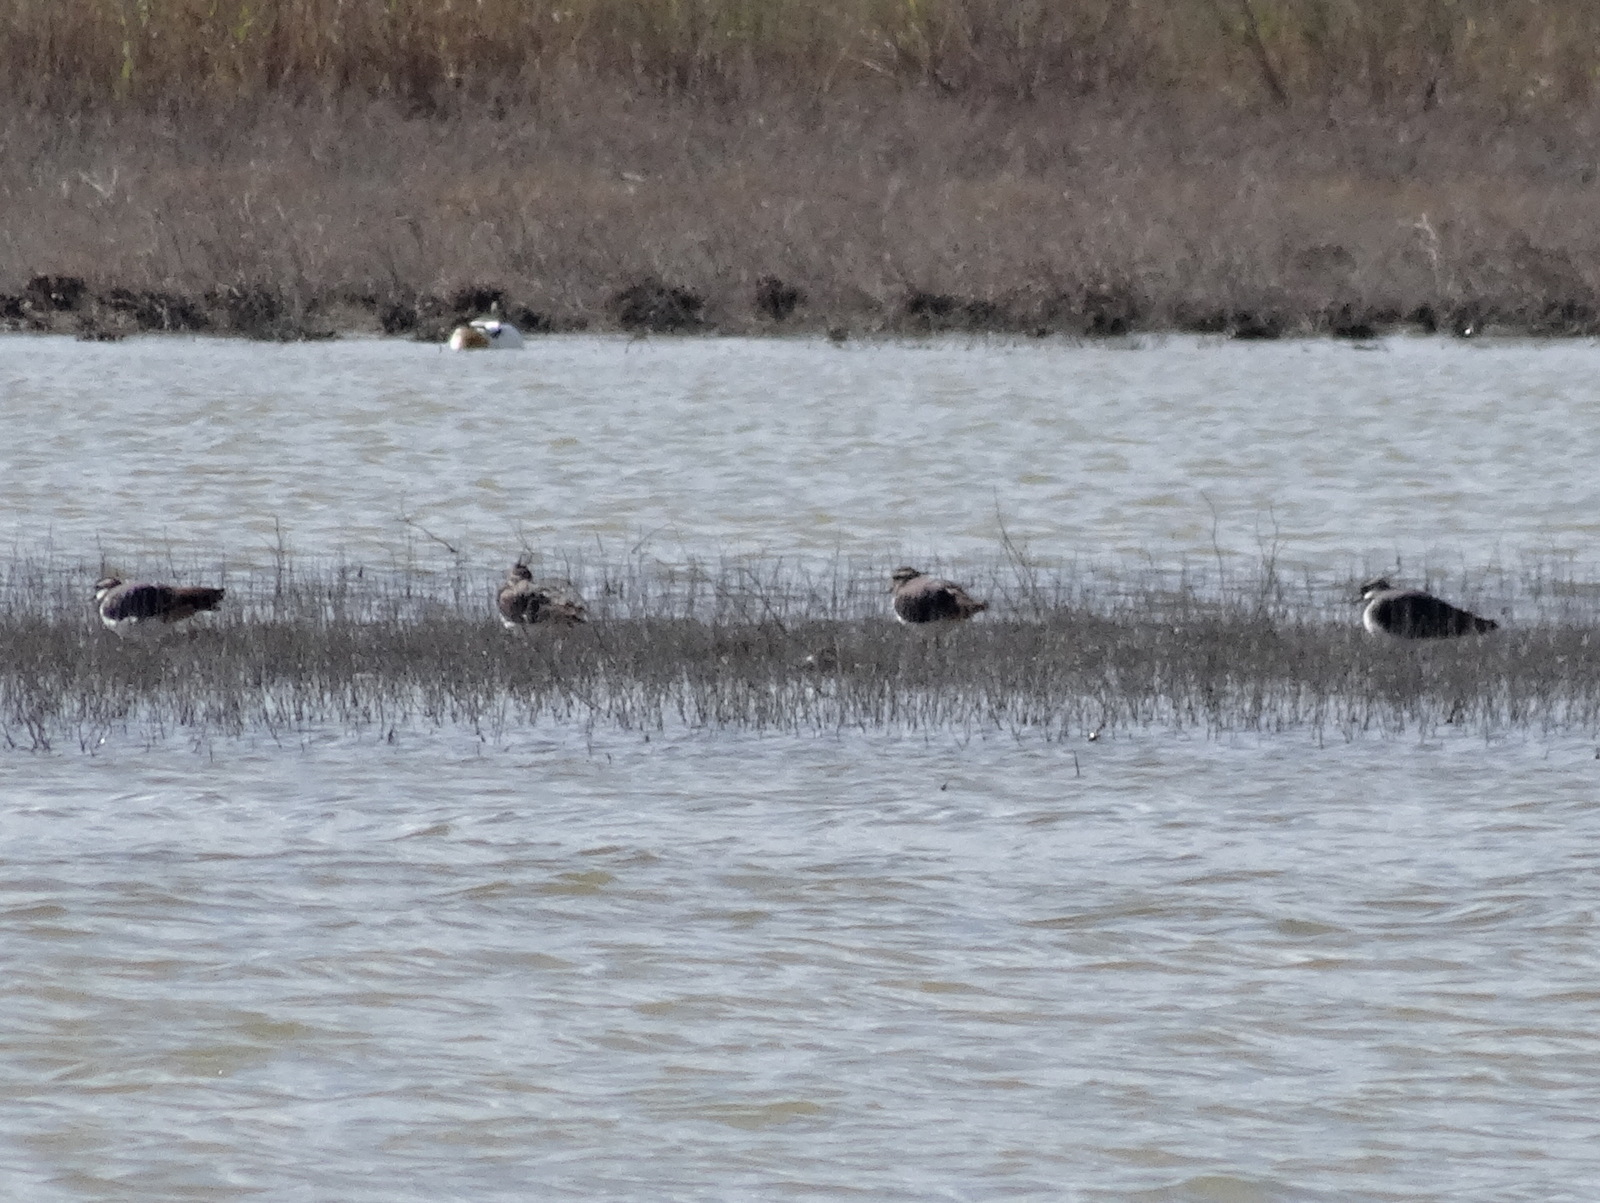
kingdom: Animalia
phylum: Chordata
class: Aves
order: Charadriiformes
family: Charadriidae
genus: Vanellus
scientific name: Vanellus vanellus
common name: Northern lapwing
